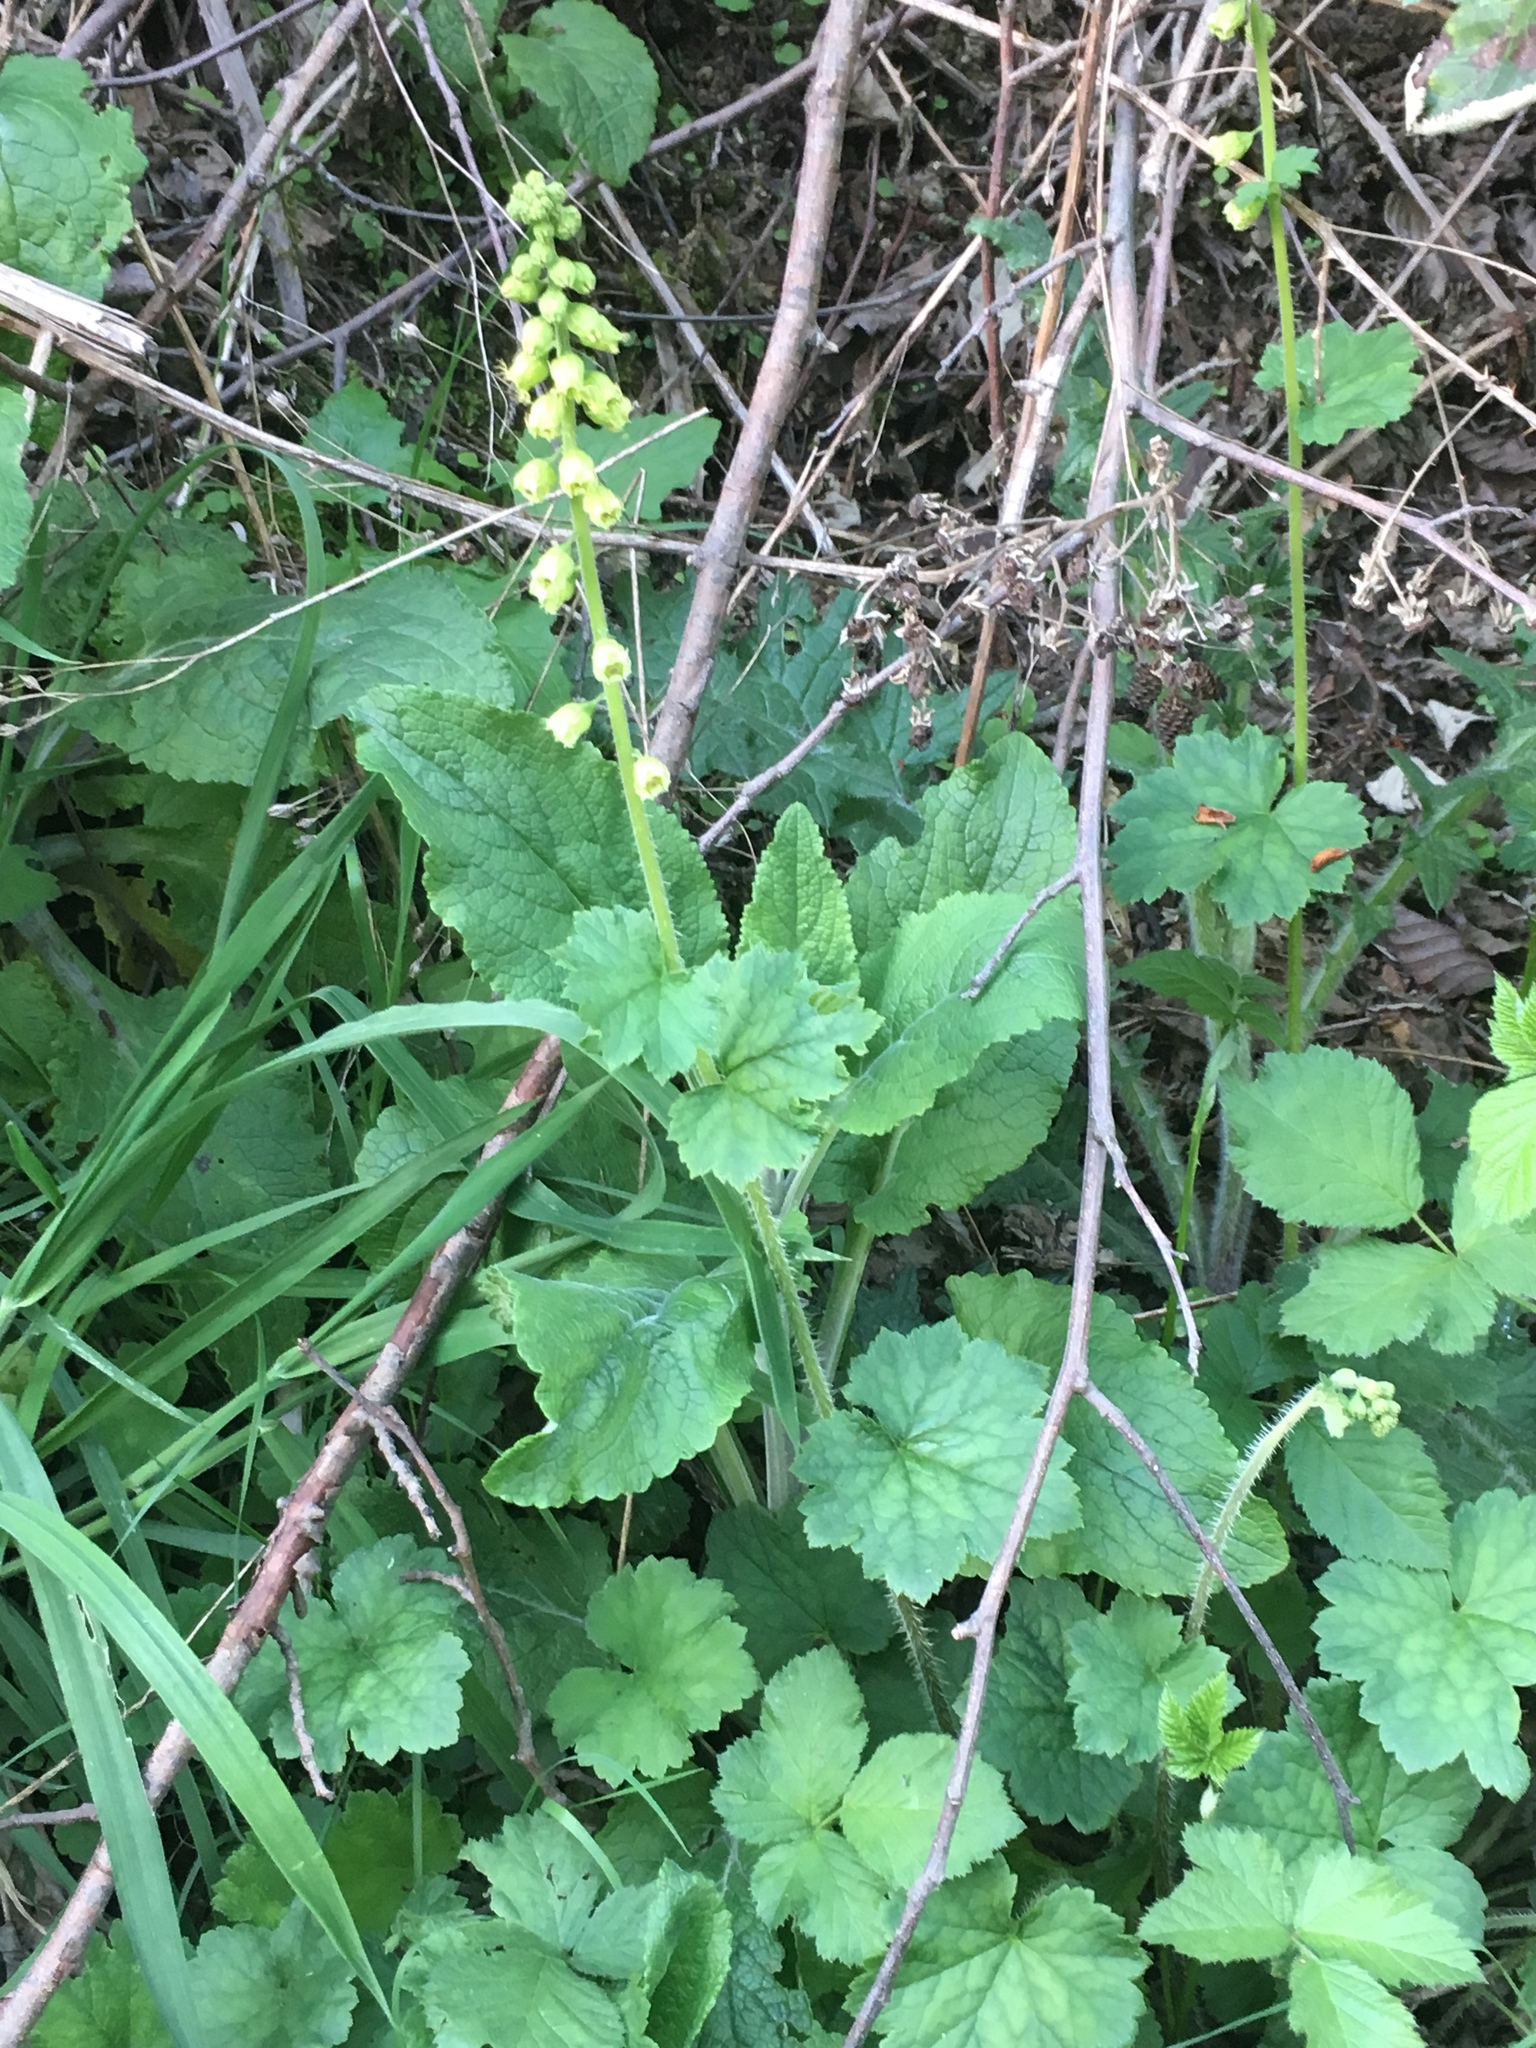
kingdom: Plantae
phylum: Tracheophyta
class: Magnoliopsida
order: Saxifragales
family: Saxifragaceae
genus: Tellima
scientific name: Tellima grandiflora
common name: Fringecups
